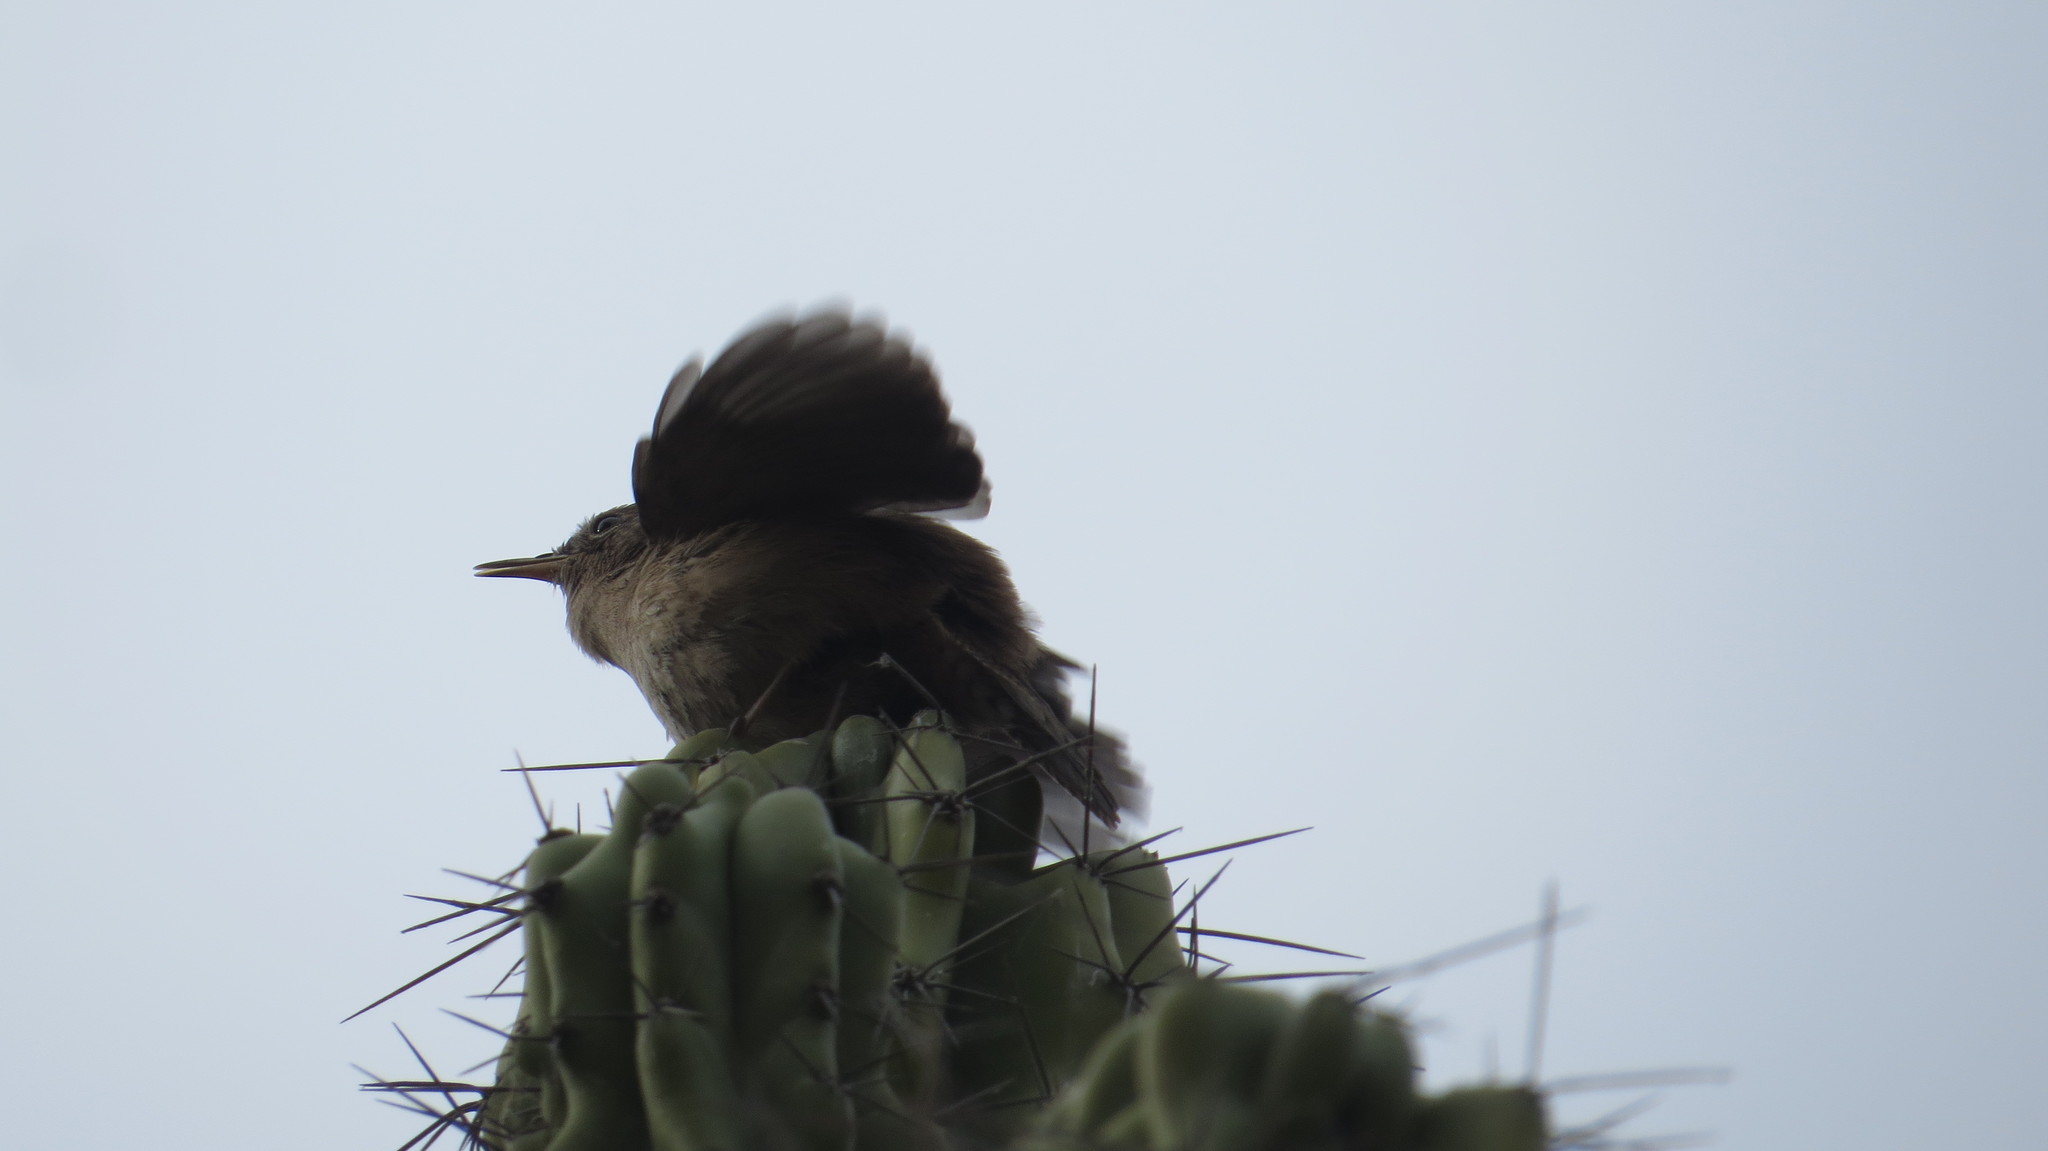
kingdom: Animalia
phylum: Chordata
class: Aves
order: Passeriformes
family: Troglodytidae
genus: Troglodytes
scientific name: Troglodytes aedon
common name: House wren
